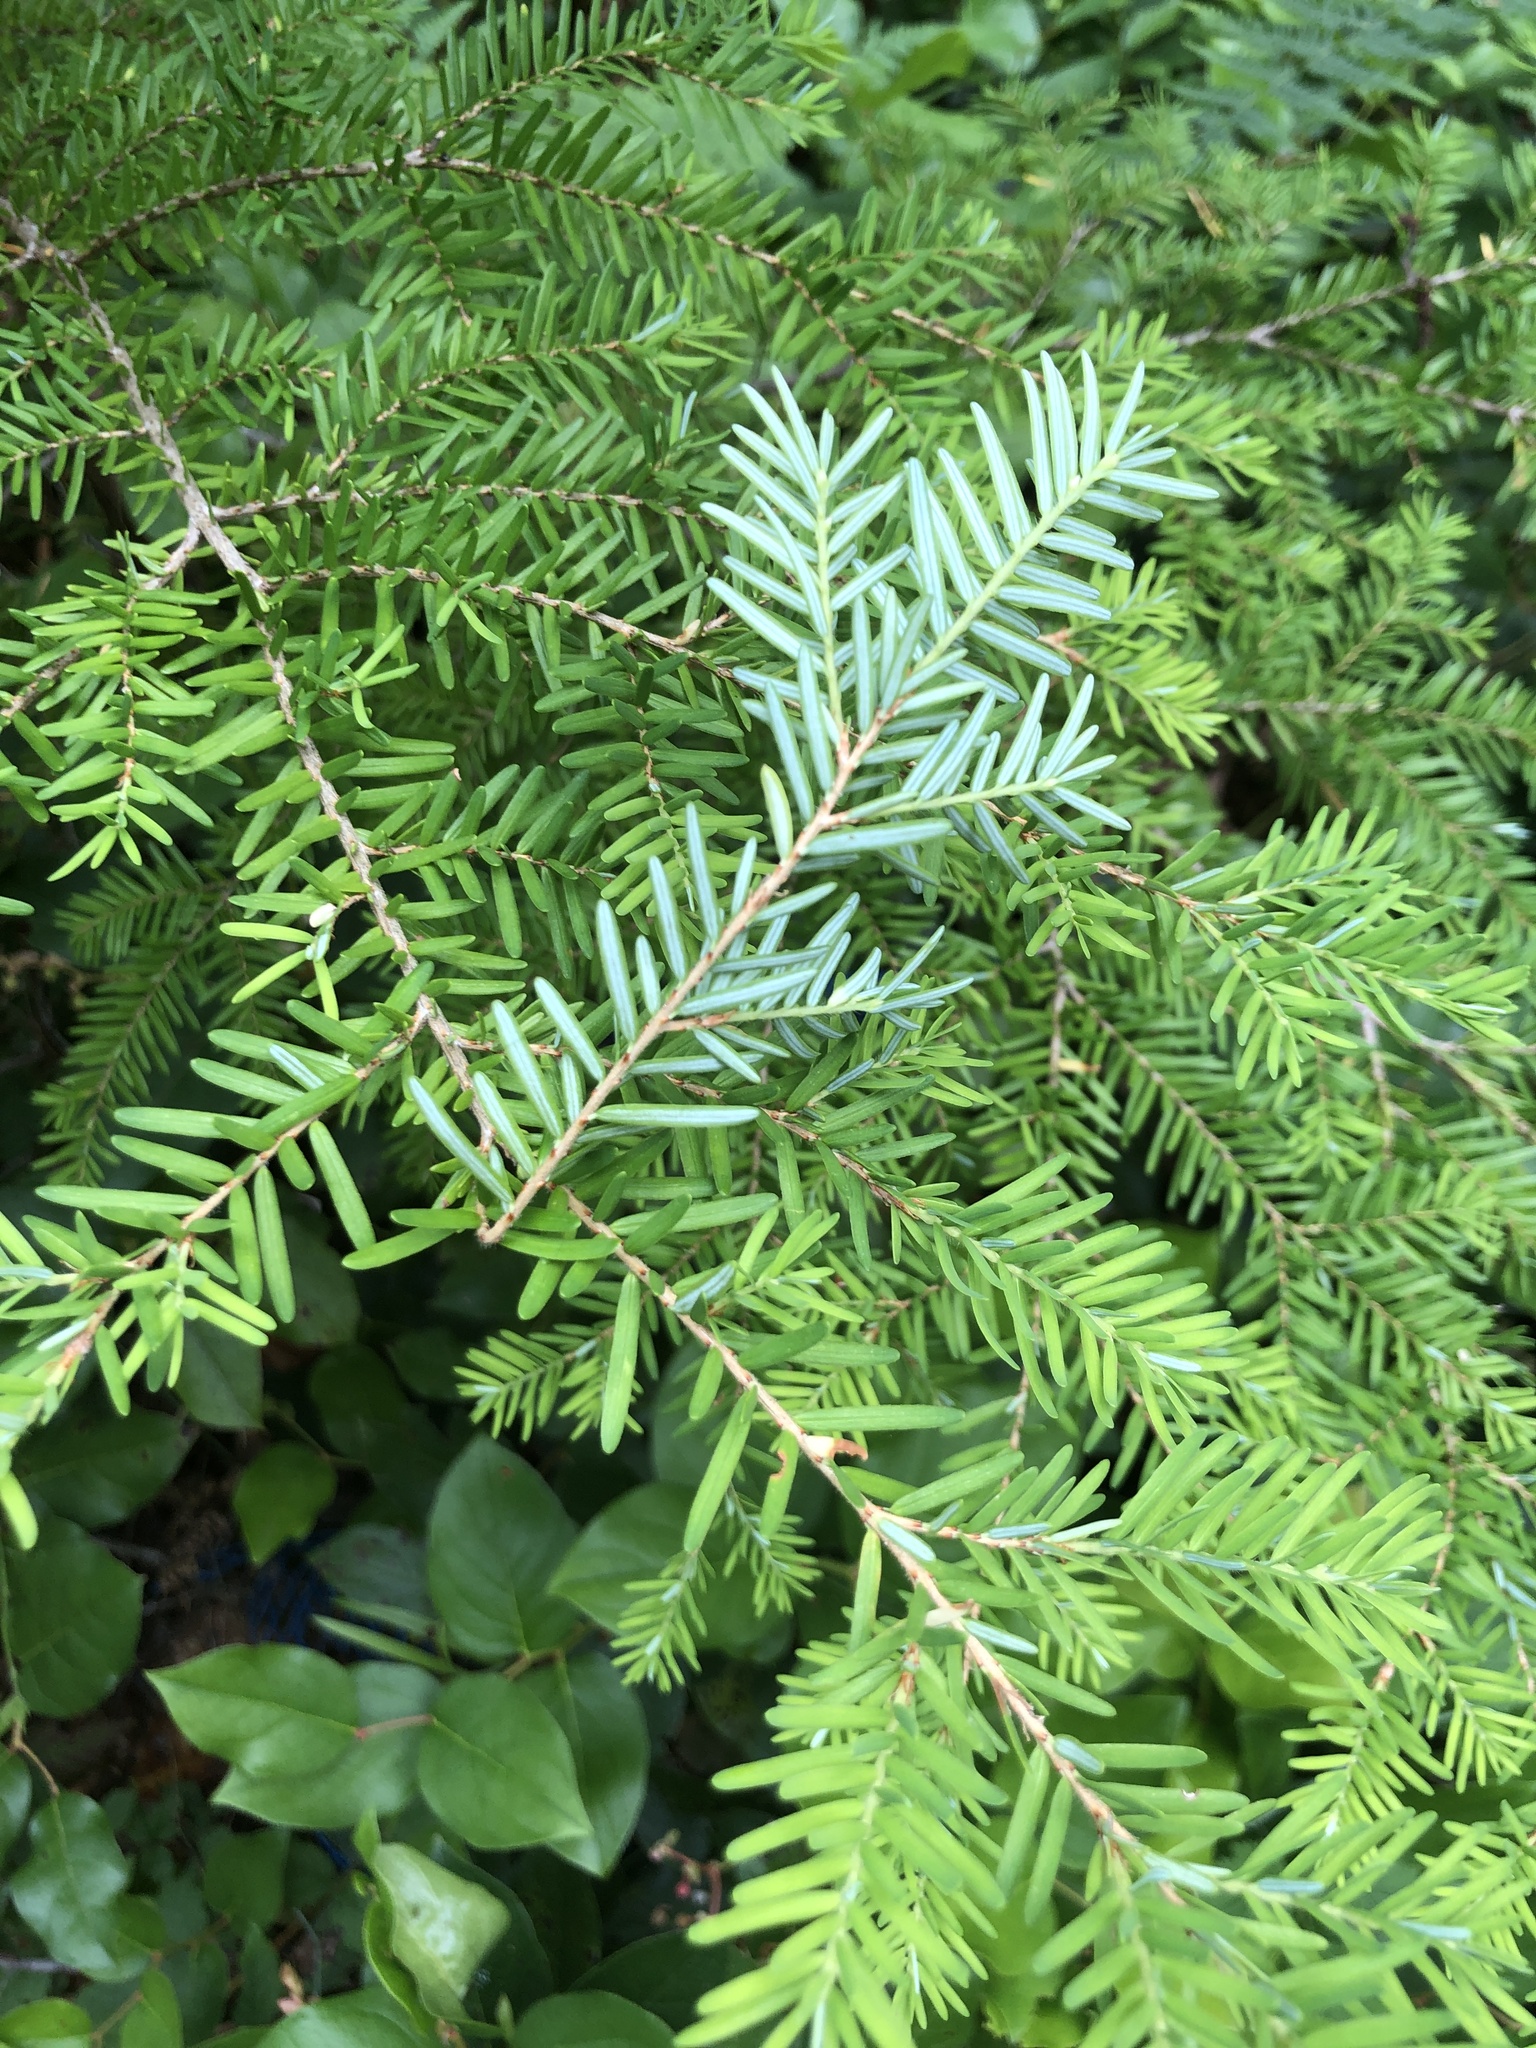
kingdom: Plantae
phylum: Tracheophyta
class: Pinopsida
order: Pinales
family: Pinaceae
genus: Tsuga
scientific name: Tsuga heterophylla
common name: Western hemlock
